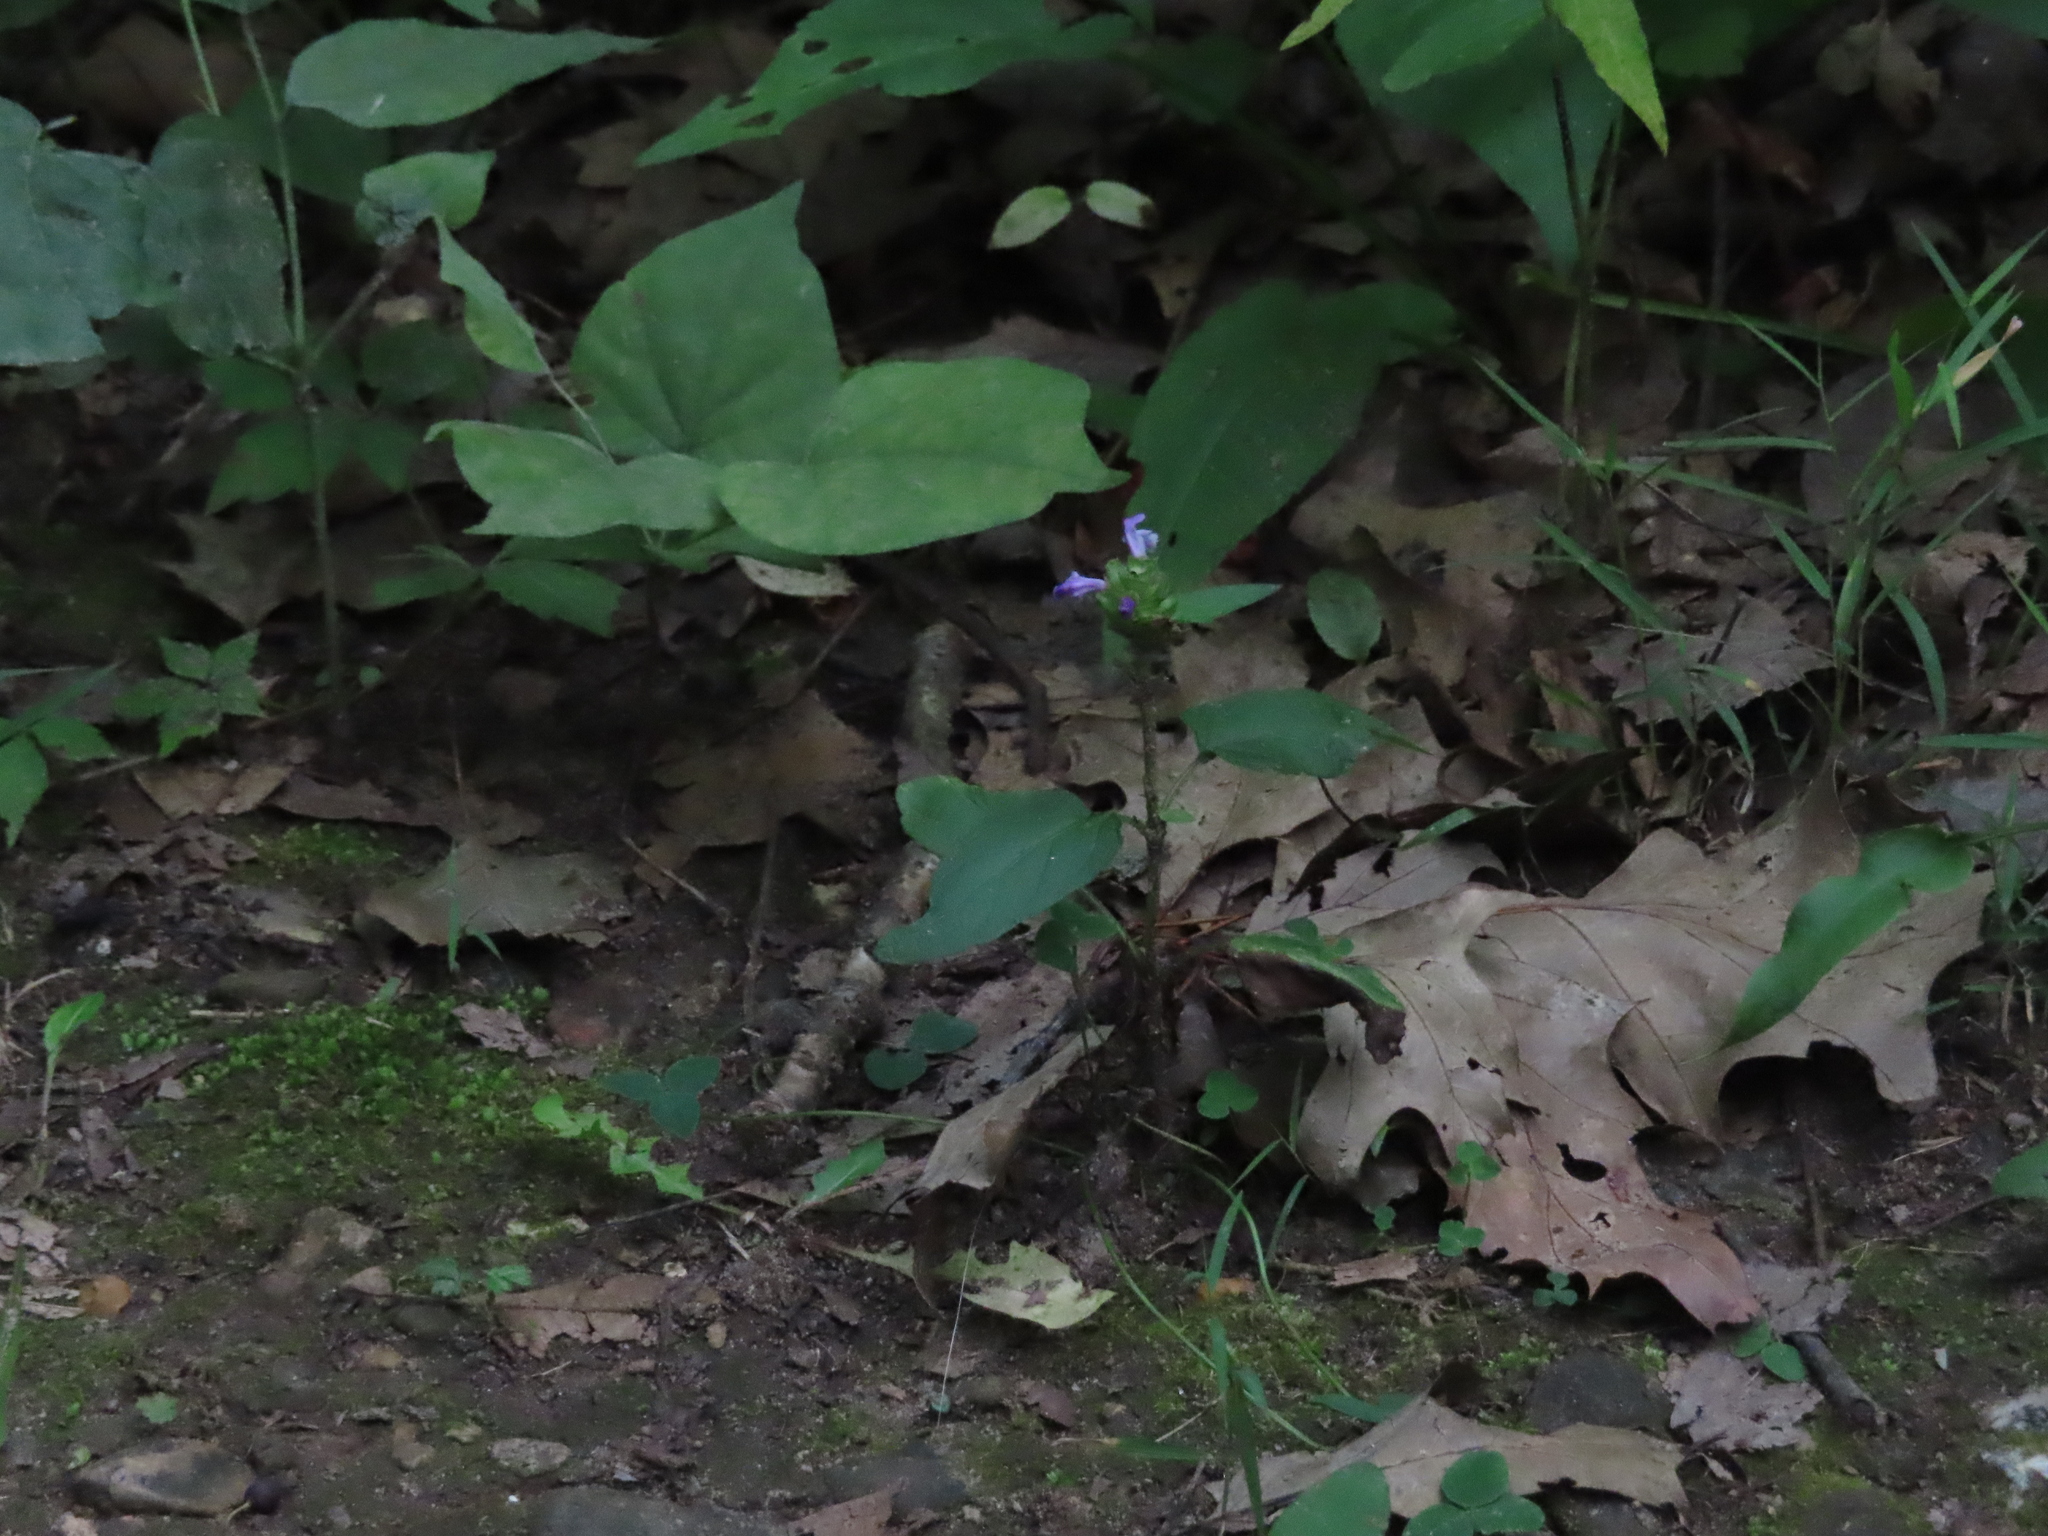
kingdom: Plantae
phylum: Tracheophyta
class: Magnoliopsida
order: Lamiales
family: Lamiaceae
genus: Prunella
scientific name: Prunella vulgaris
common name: Heal-all
